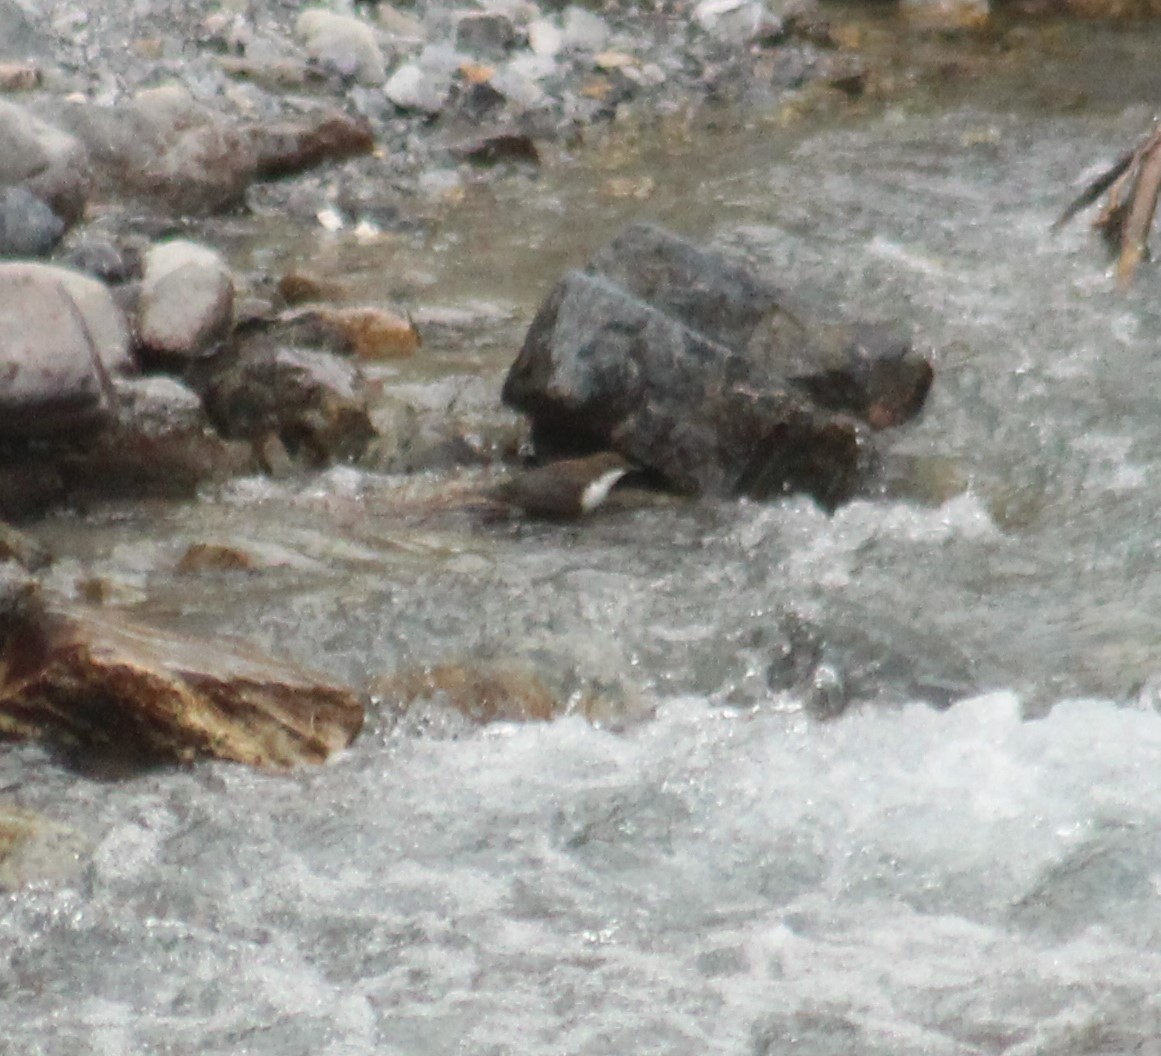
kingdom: Animalia
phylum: Chordata
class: Aves
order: Passeriformes
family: Cinclidae
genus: Cinclus
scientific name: Cinclus cinclus
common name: White-throated dipper
